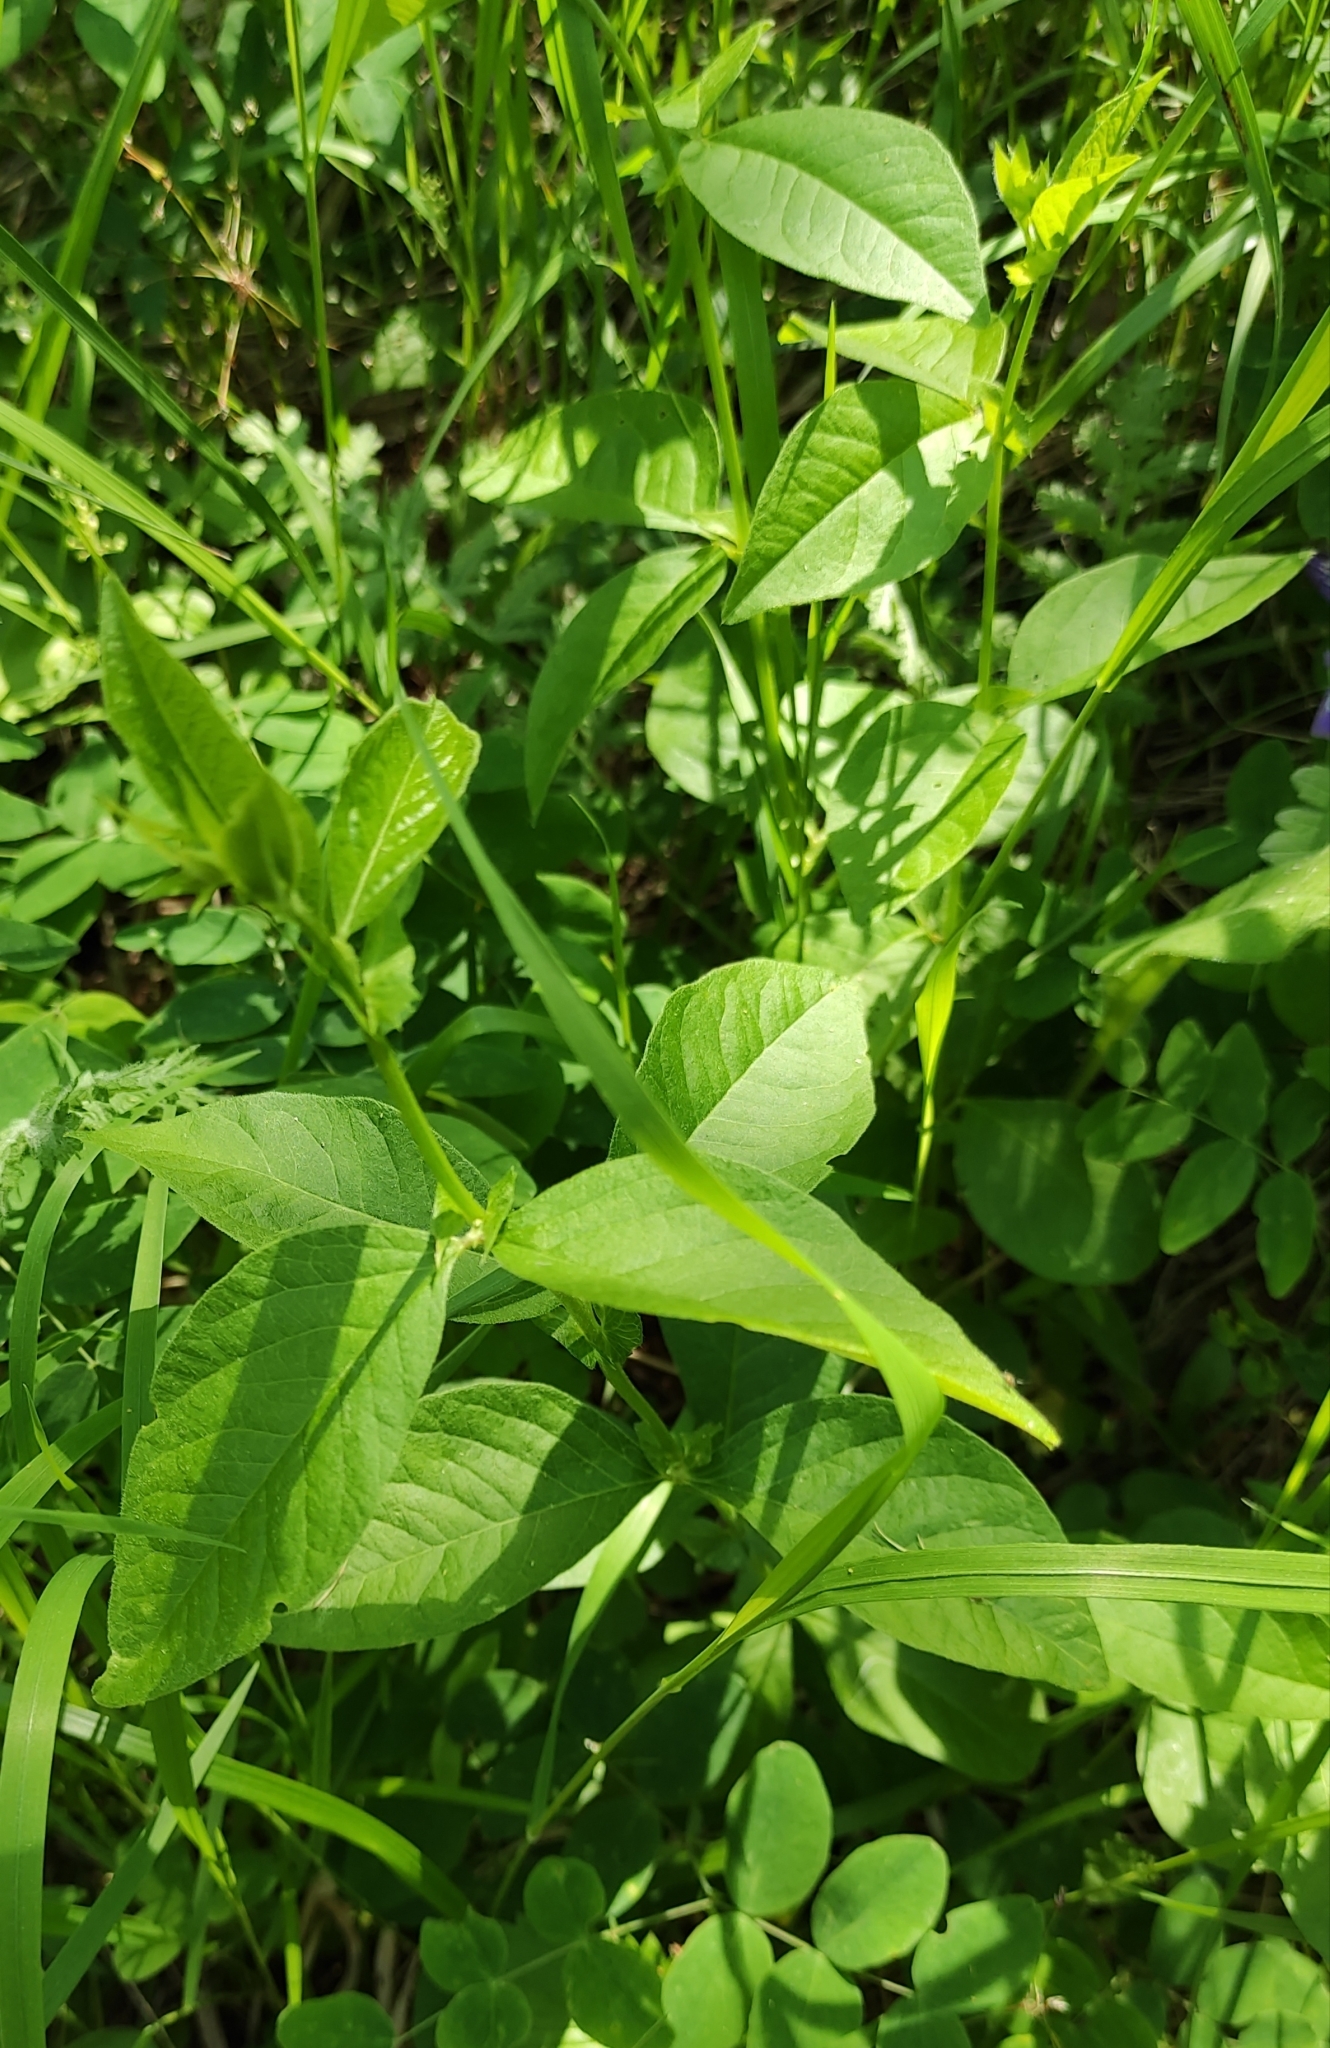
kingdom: Plantae
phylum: Tracheophyta
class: Magnoliopsida
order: Fabales
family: Fabaceae
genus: Vicia
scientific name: Vicia unijuga
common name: Two-leaf vetch
